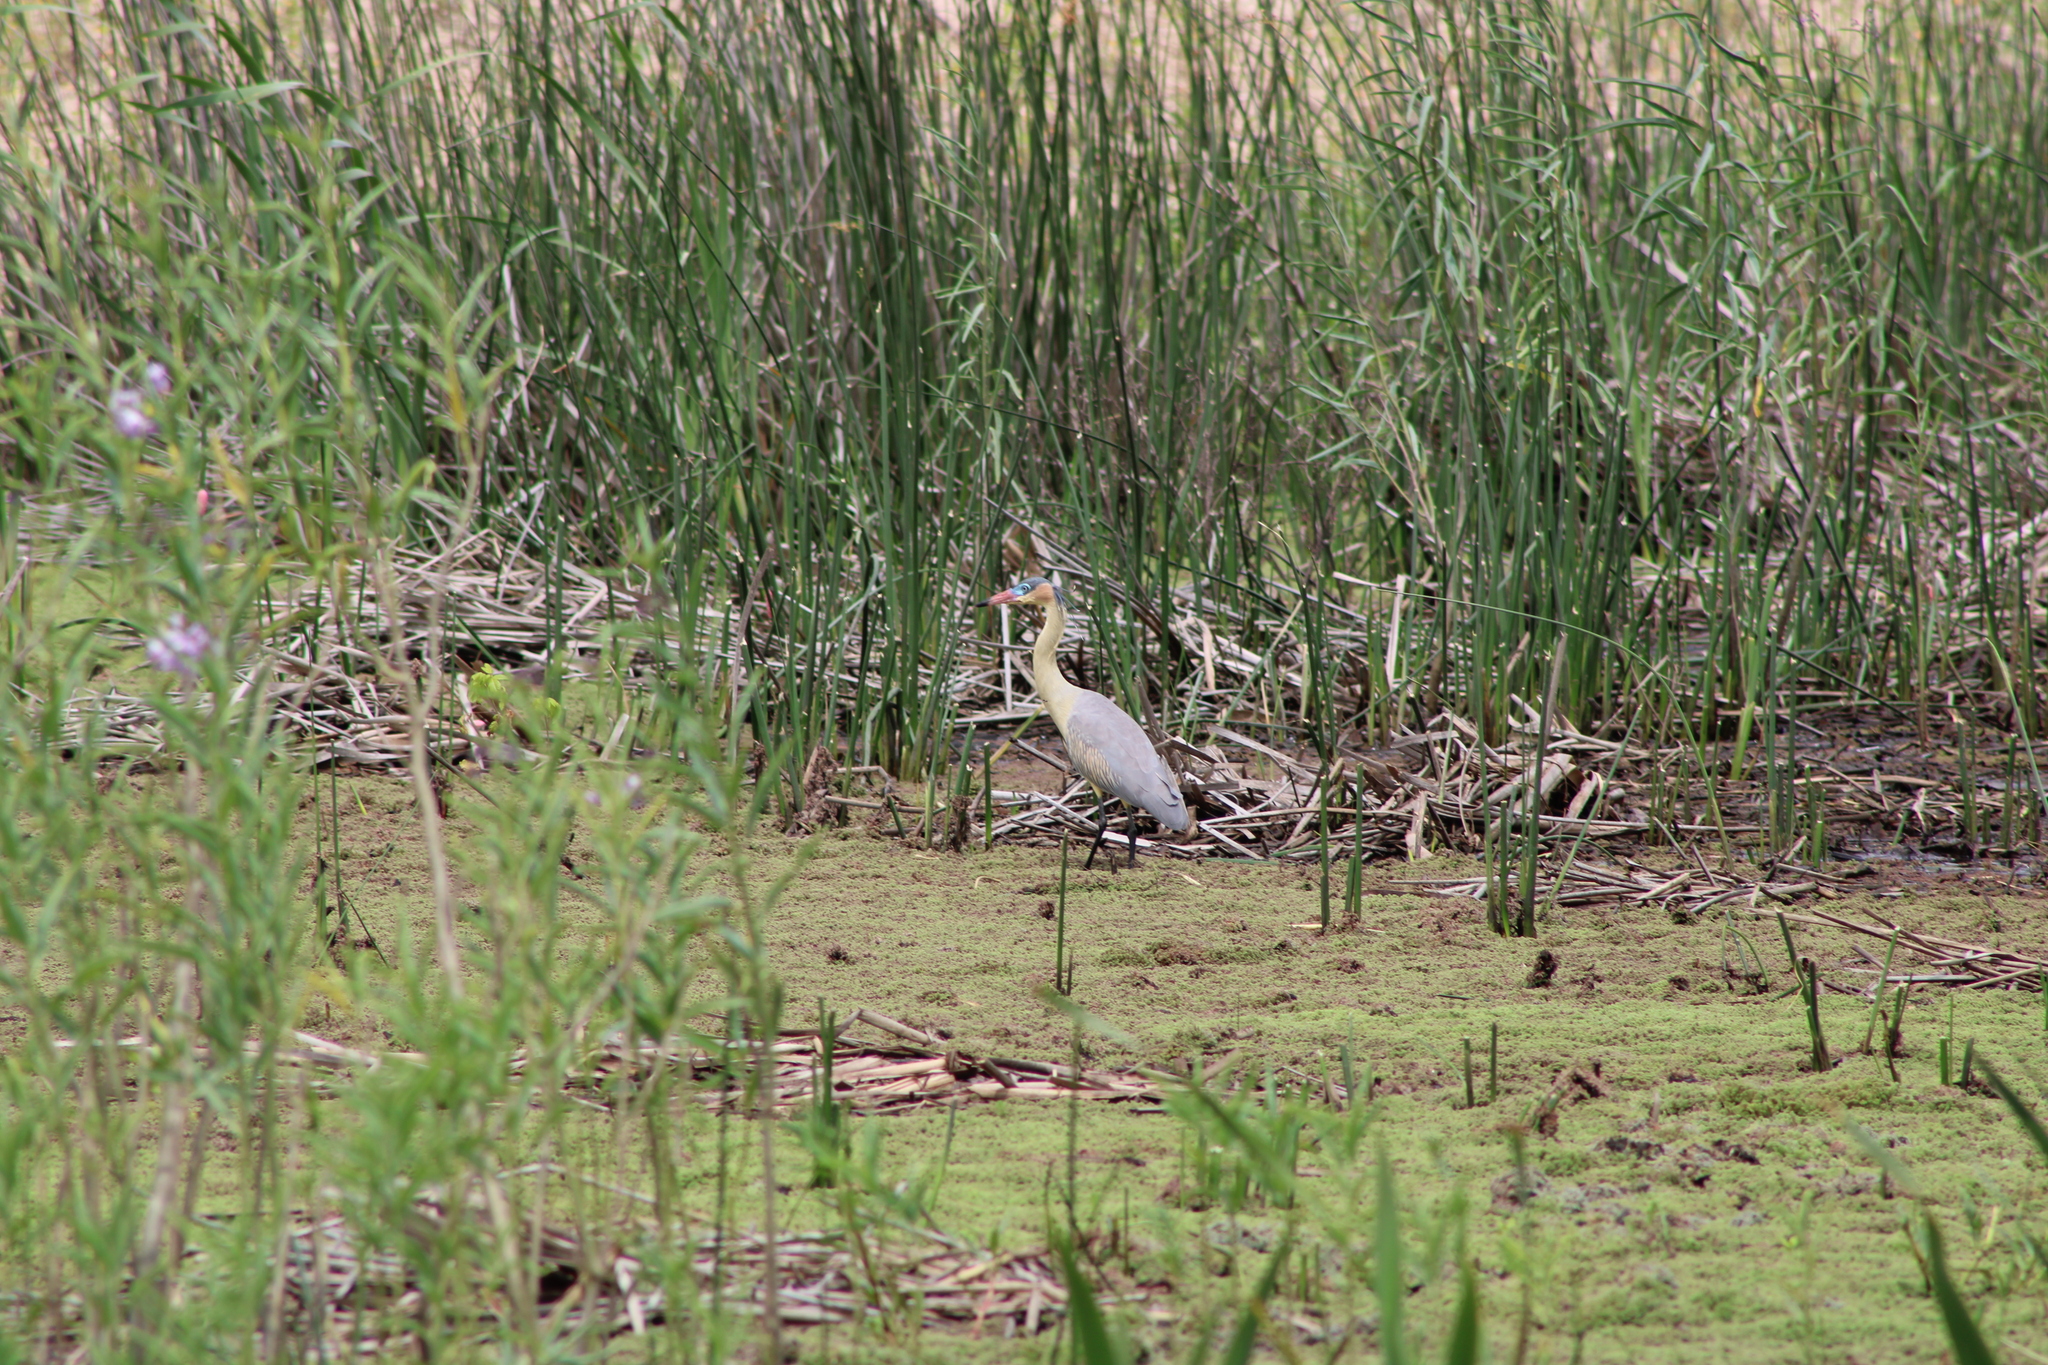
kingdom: Animalia
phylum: Chordata
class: Aves
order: Pelecaniformes
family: Ardeidae
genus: Syrigma
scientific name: Syrigma sibilatrix
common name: Whistling heron
